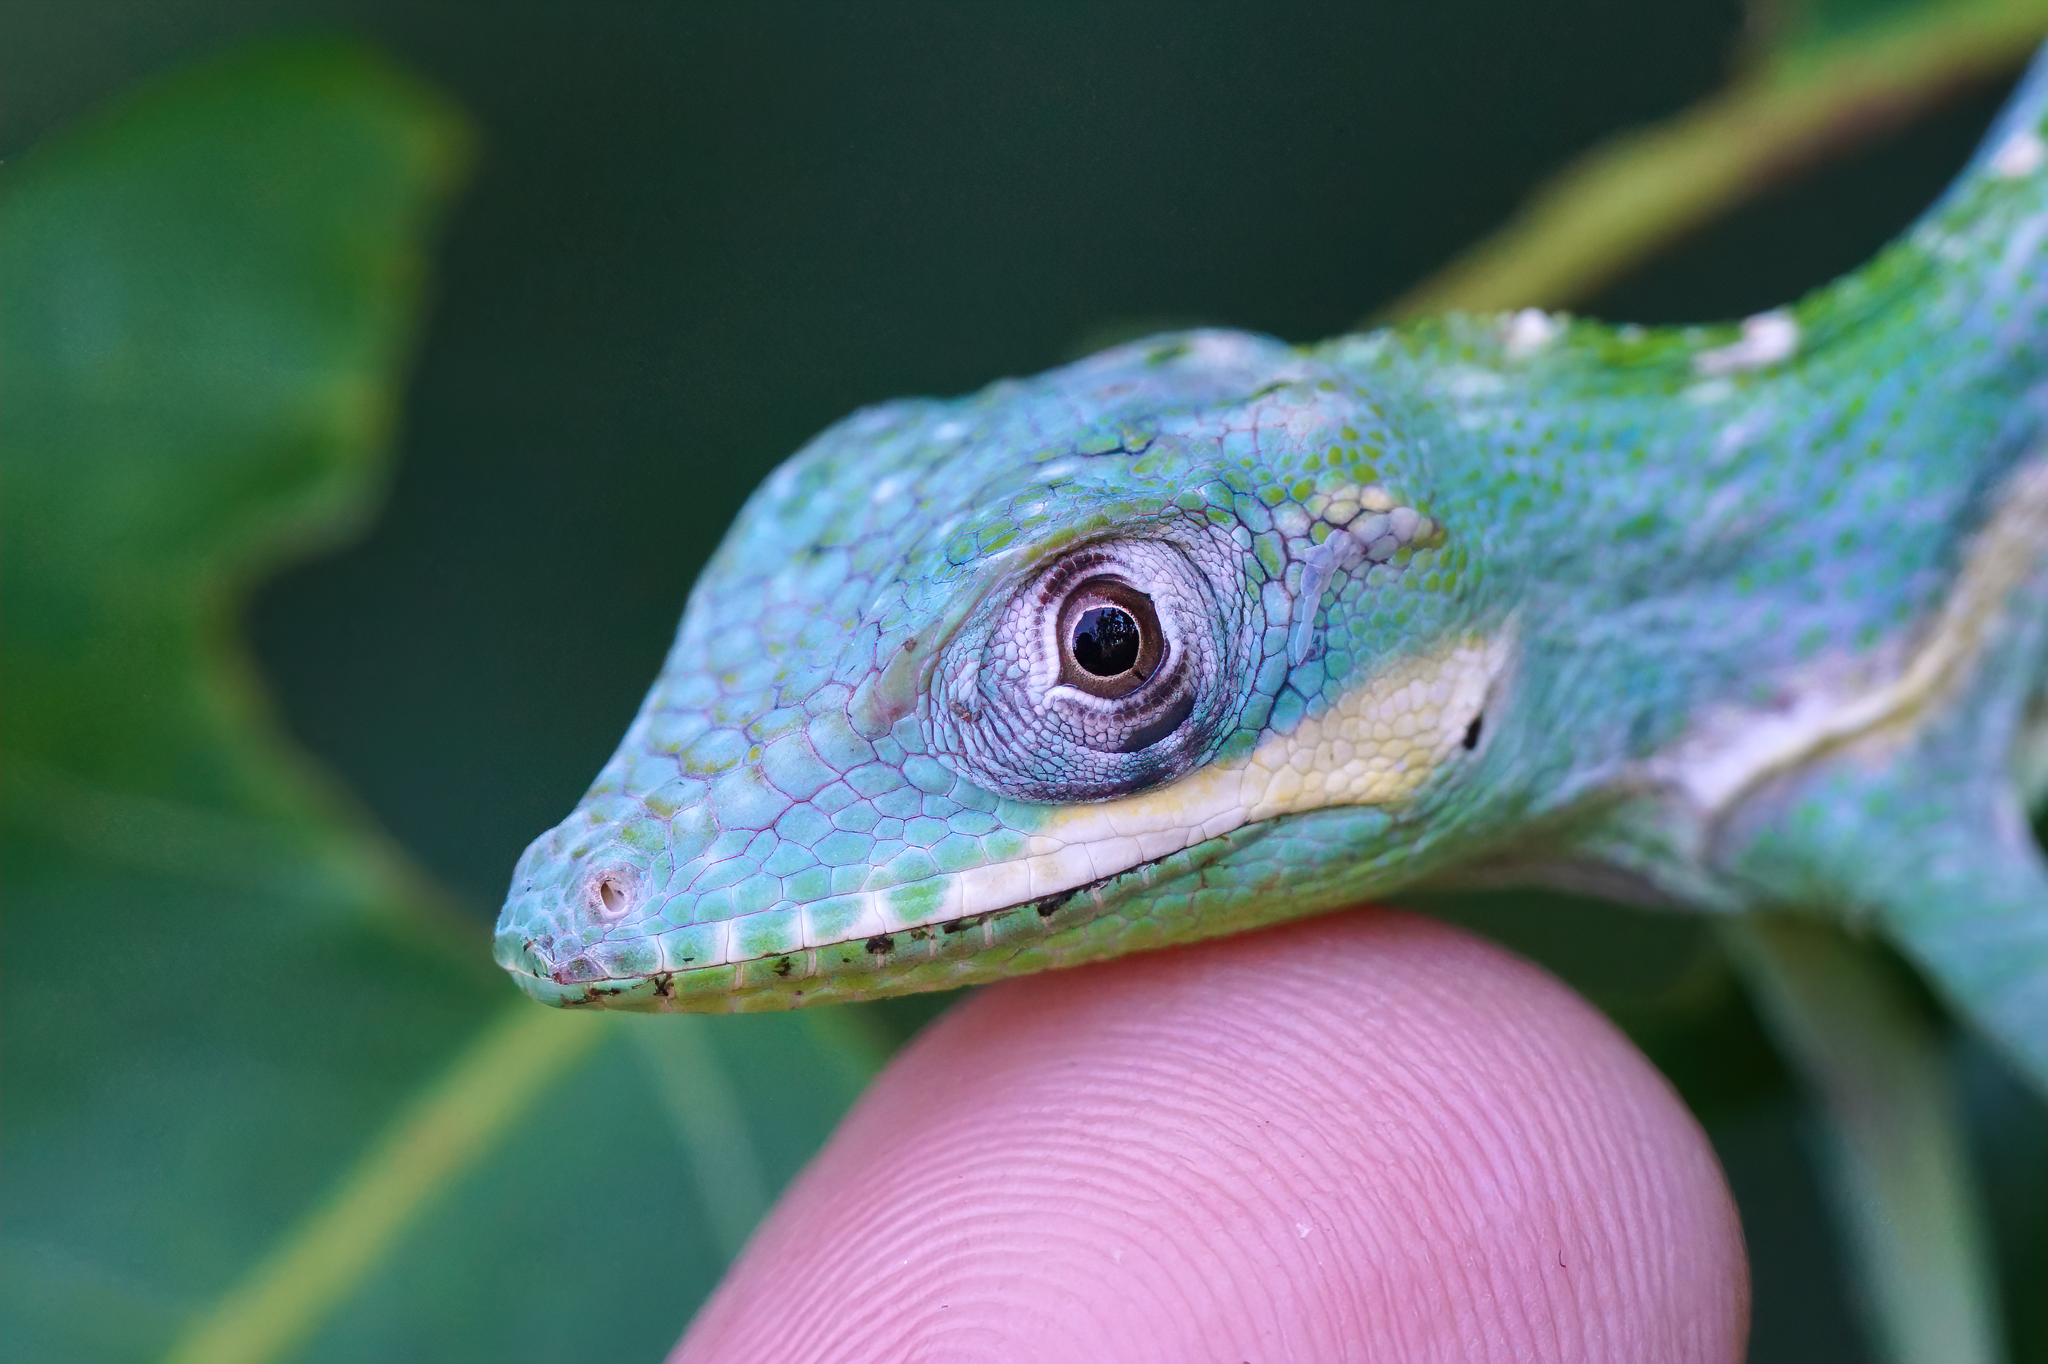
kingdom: Animalia
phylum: Chordata
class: Squamata
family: Dactyloidae
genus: Anolis
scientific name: Anolis equestris
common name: Knight anole
